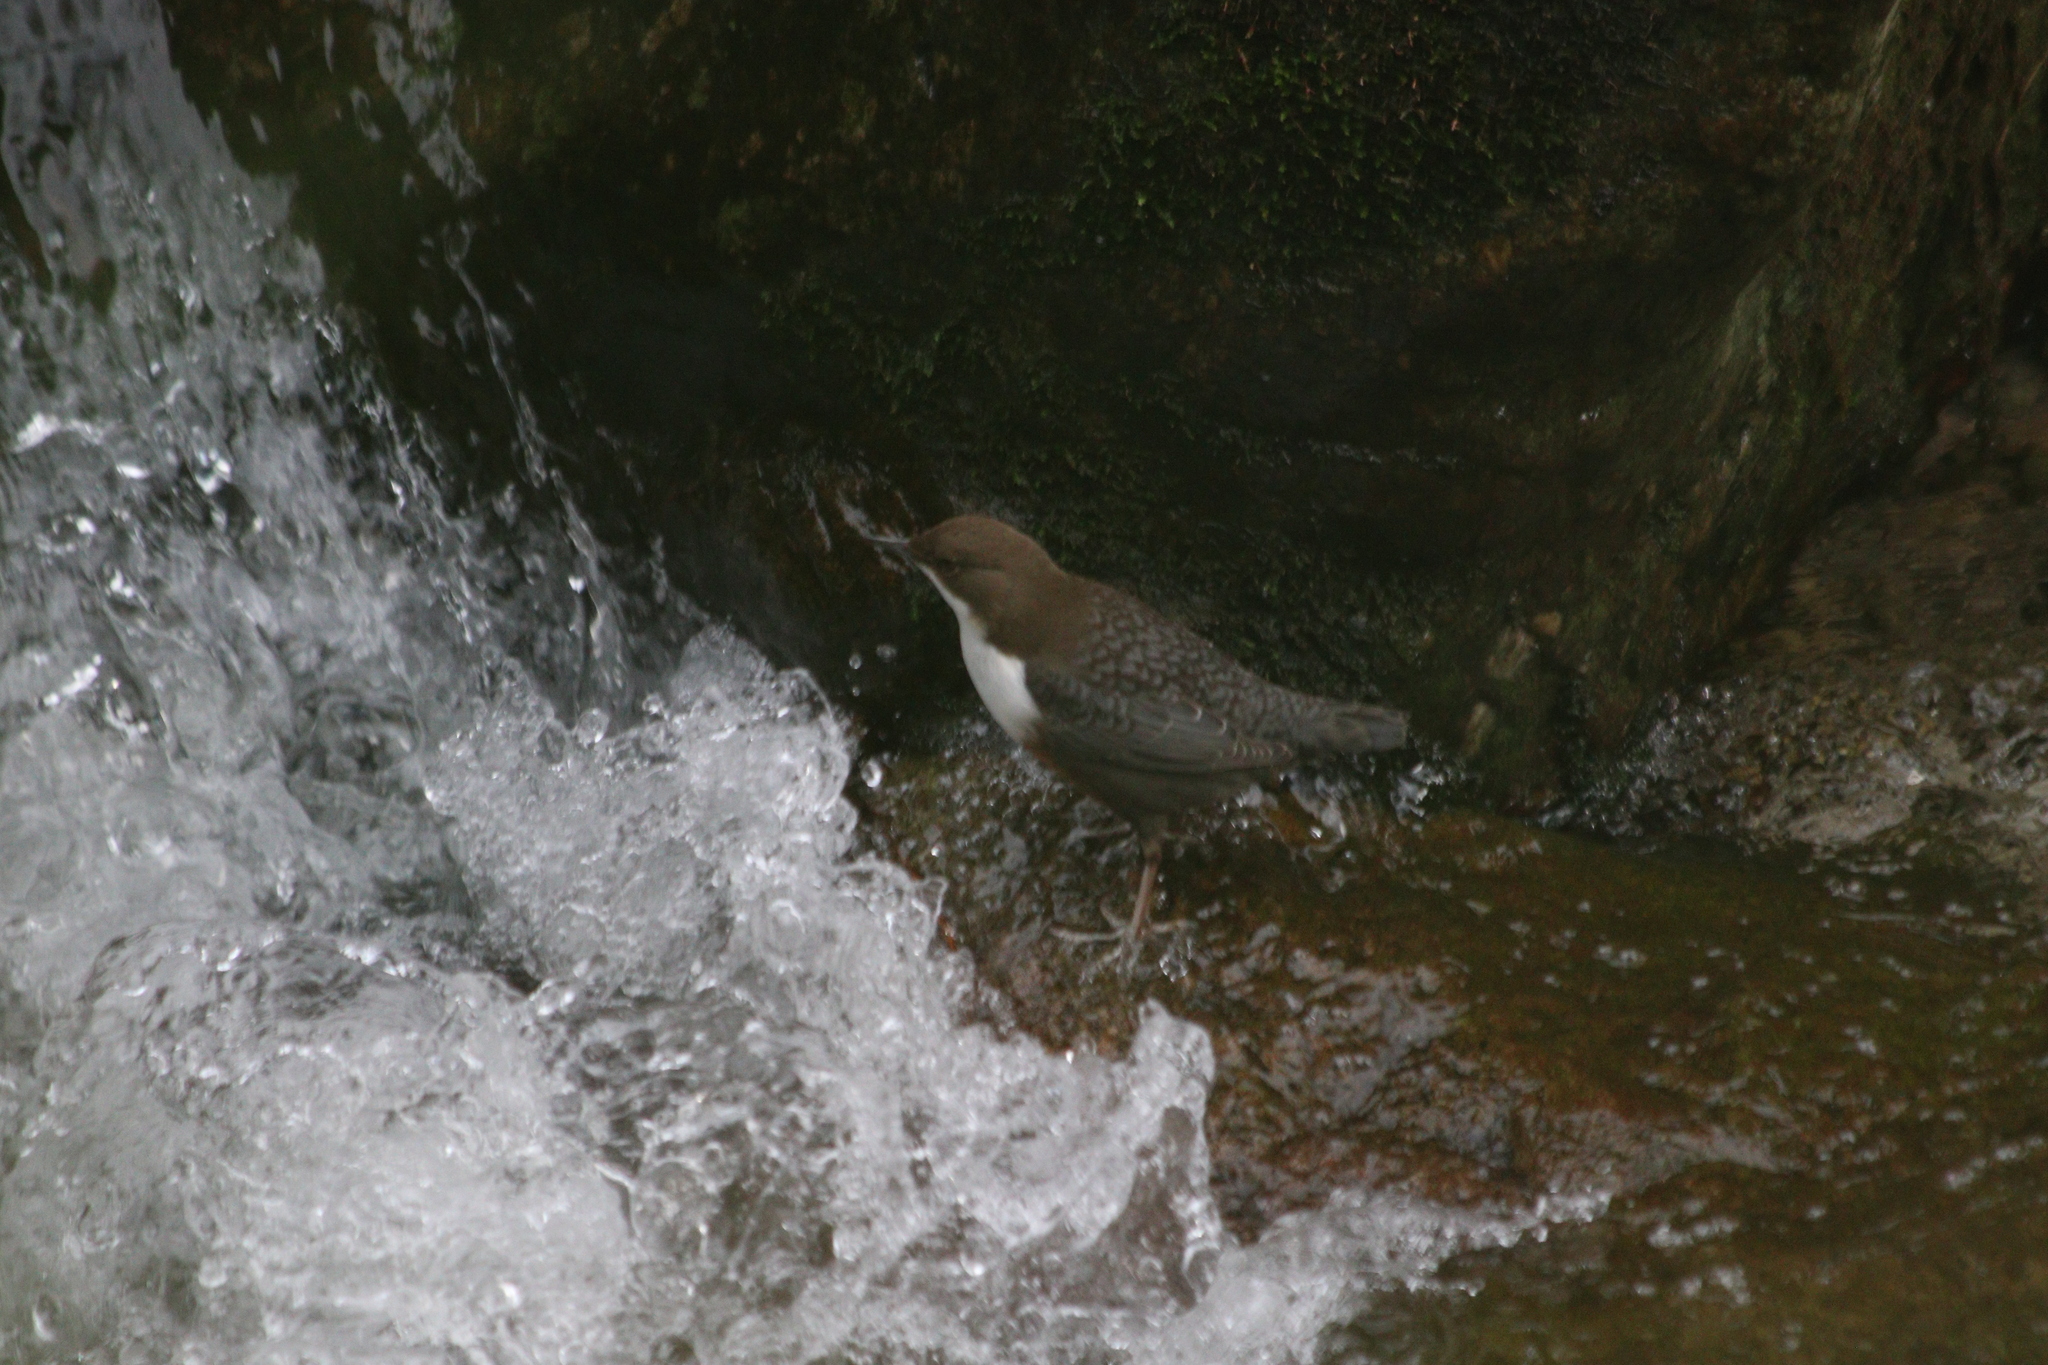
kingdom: Animalia
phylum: Chordata
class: Aves
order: Passeriformes
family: Cinclidae
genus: Cinclus
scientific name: Cinclus cinclus
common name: White-throated dipper
